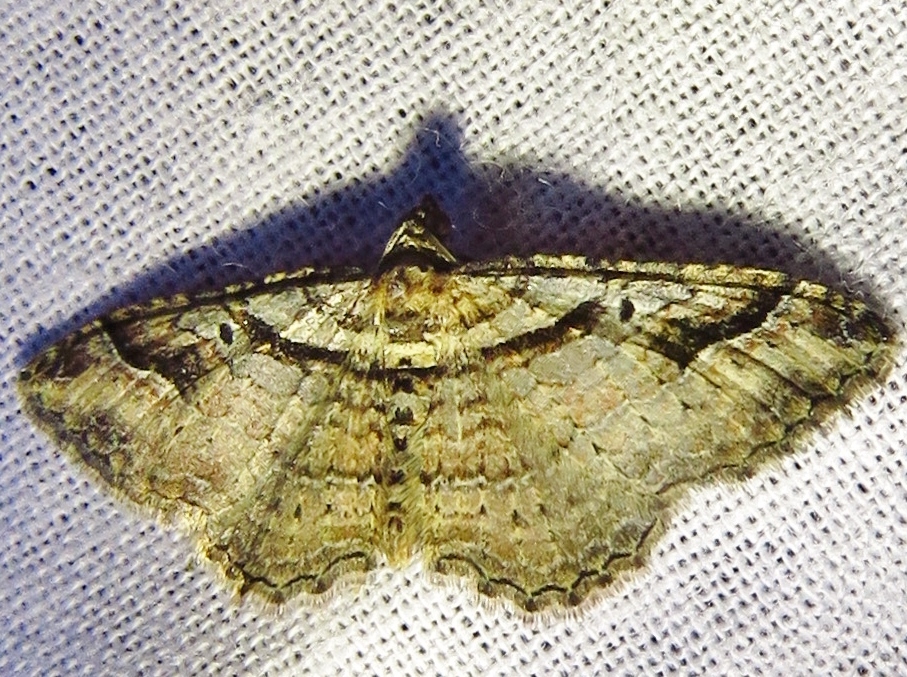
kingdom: Animalia
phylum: Arthropoda
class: Insecta
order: Lepidoptera
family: Geometridae
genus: Costaconvexa
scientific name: Costaconvexa centrostrigaria
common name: Bent-line carpet
